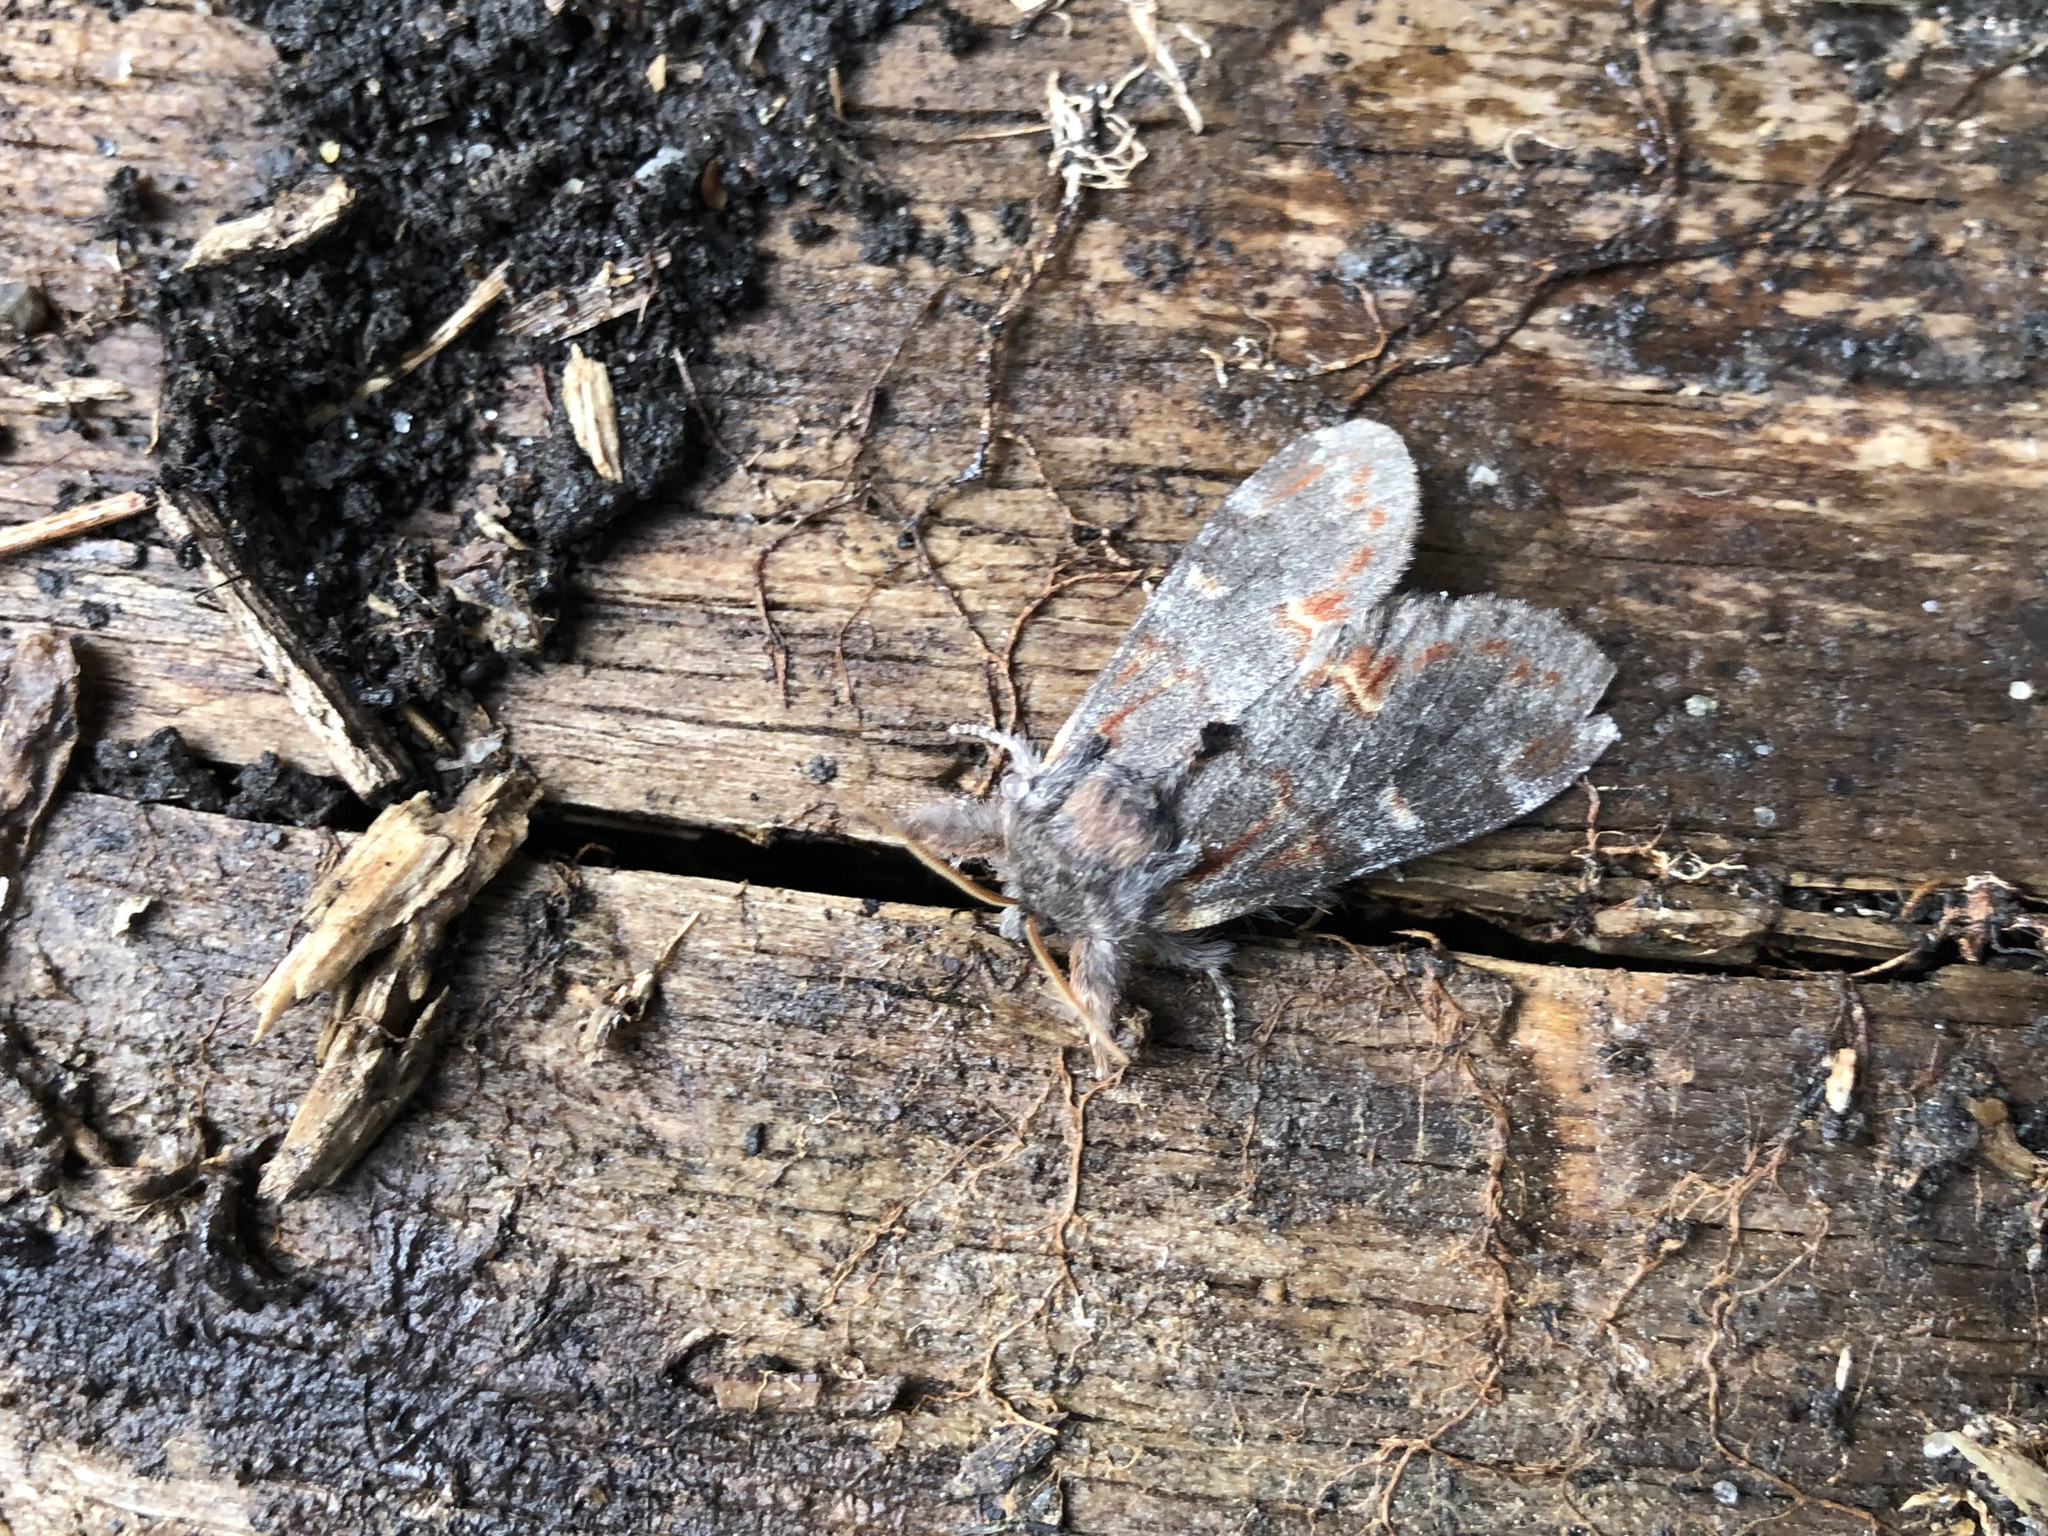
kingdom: Animalia
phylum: Arthropoda
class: Insecta
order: Lepidoptera
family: Notodontidae
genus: Notodonta
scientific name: Notodonta dromedarius
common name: Iron prominent
